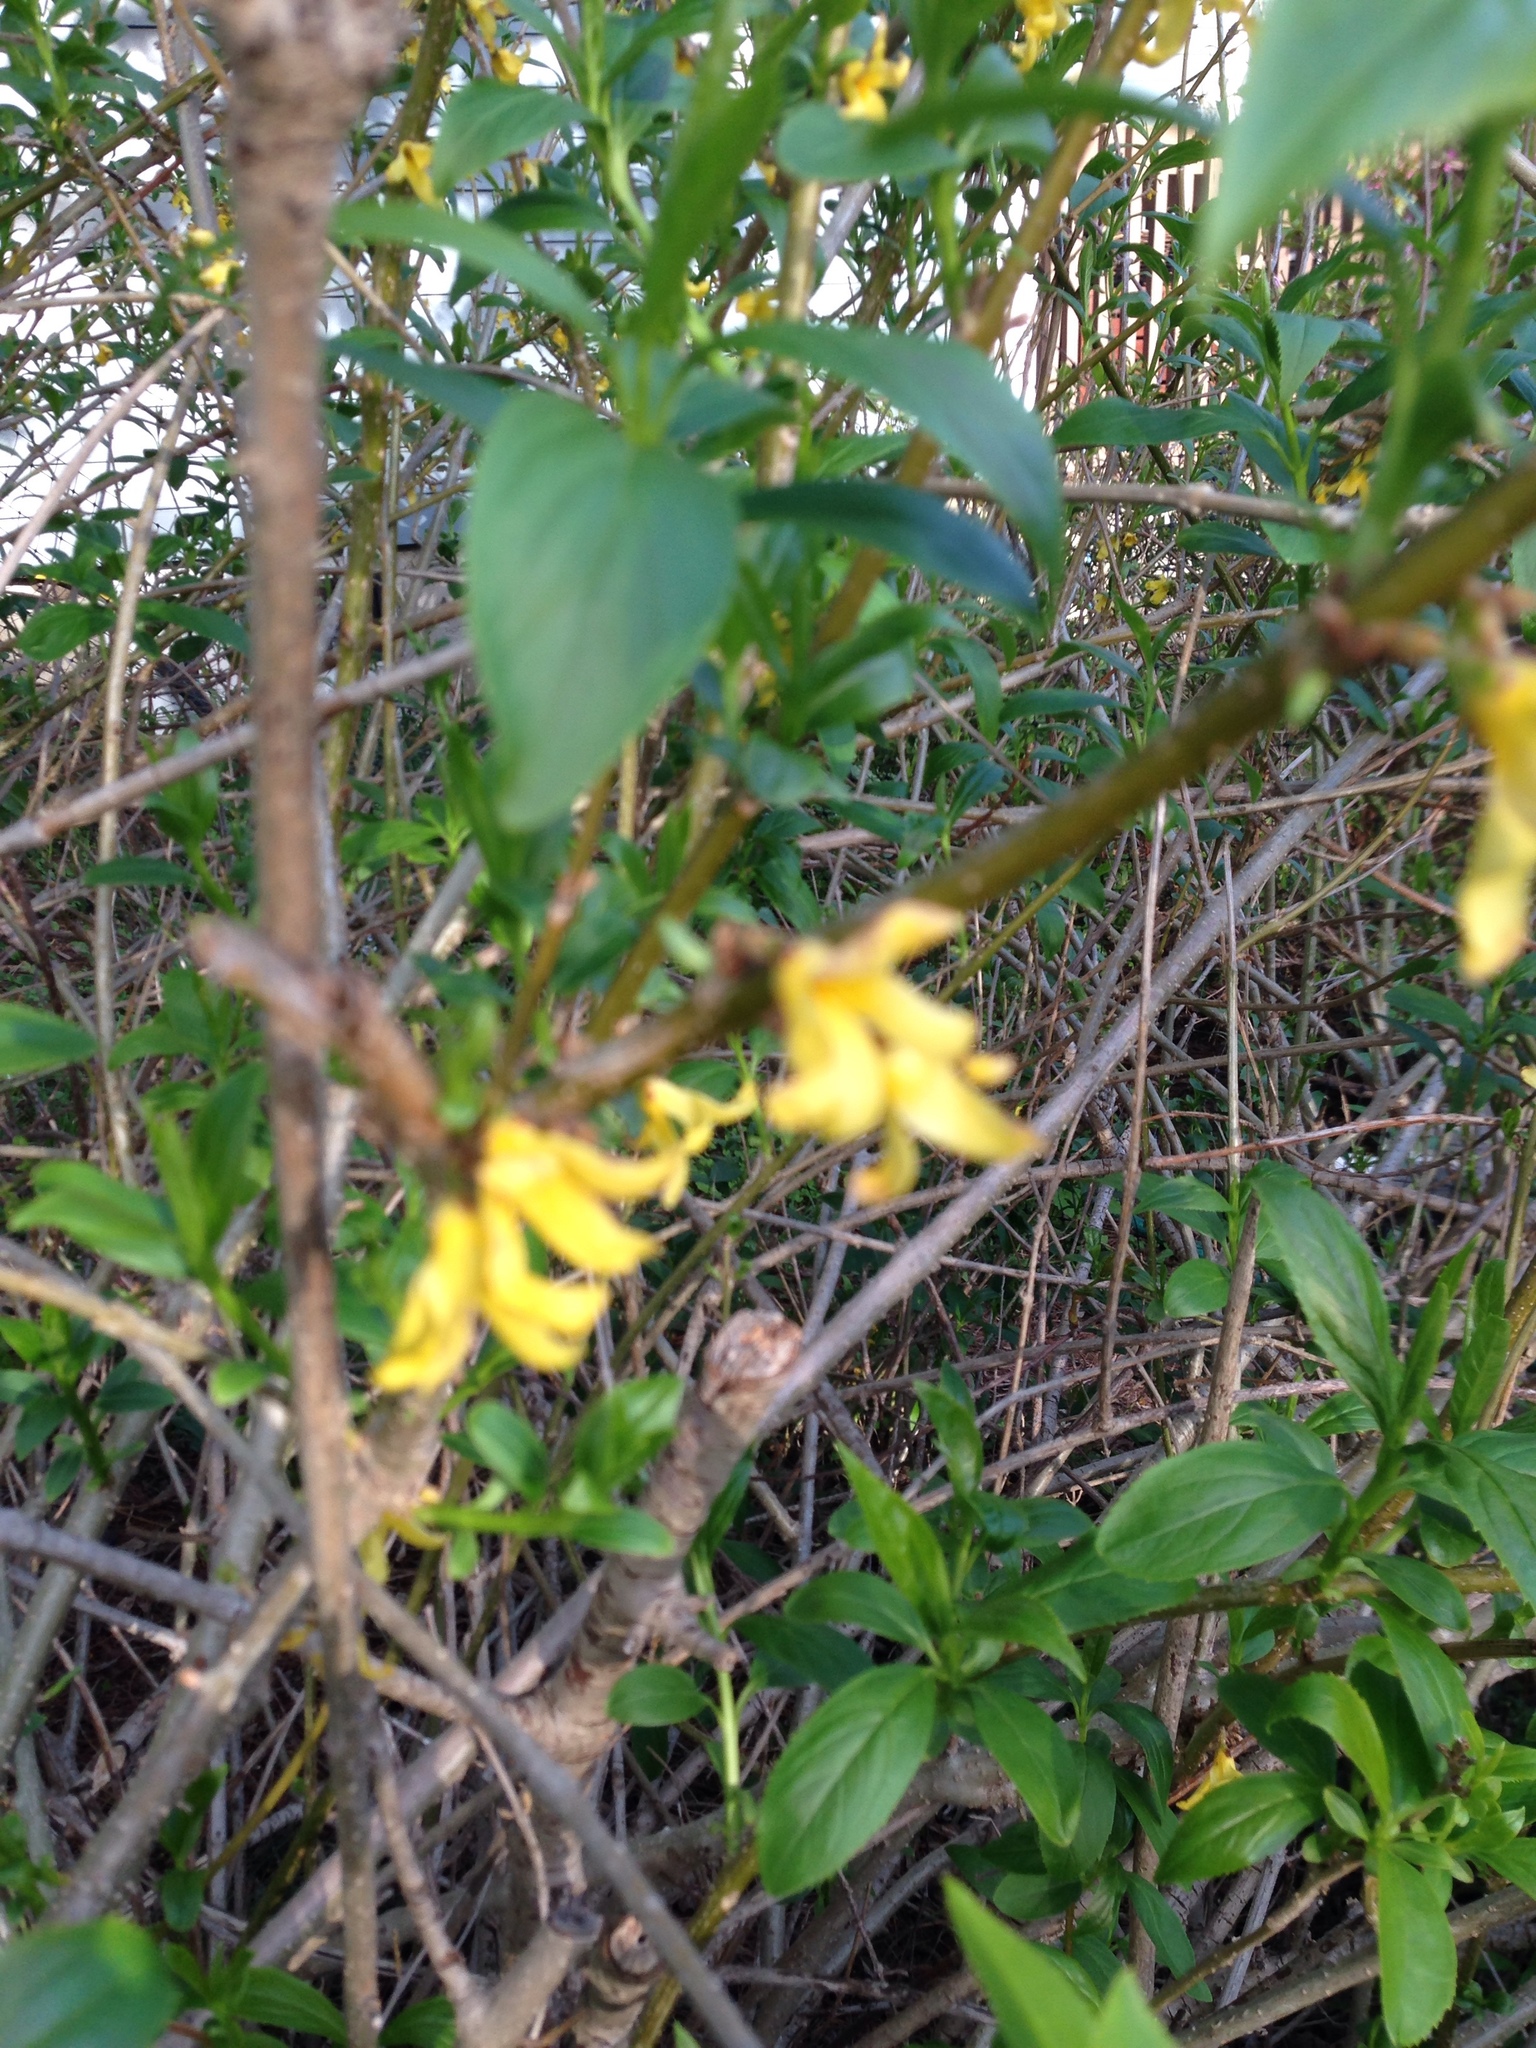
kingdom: Plantae
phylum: Tracheophyta
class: Magnoliopsida
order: Lamiales
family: Oleaceae
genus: Forsythia
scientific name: Forsythia intermedia
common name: Forsythia
